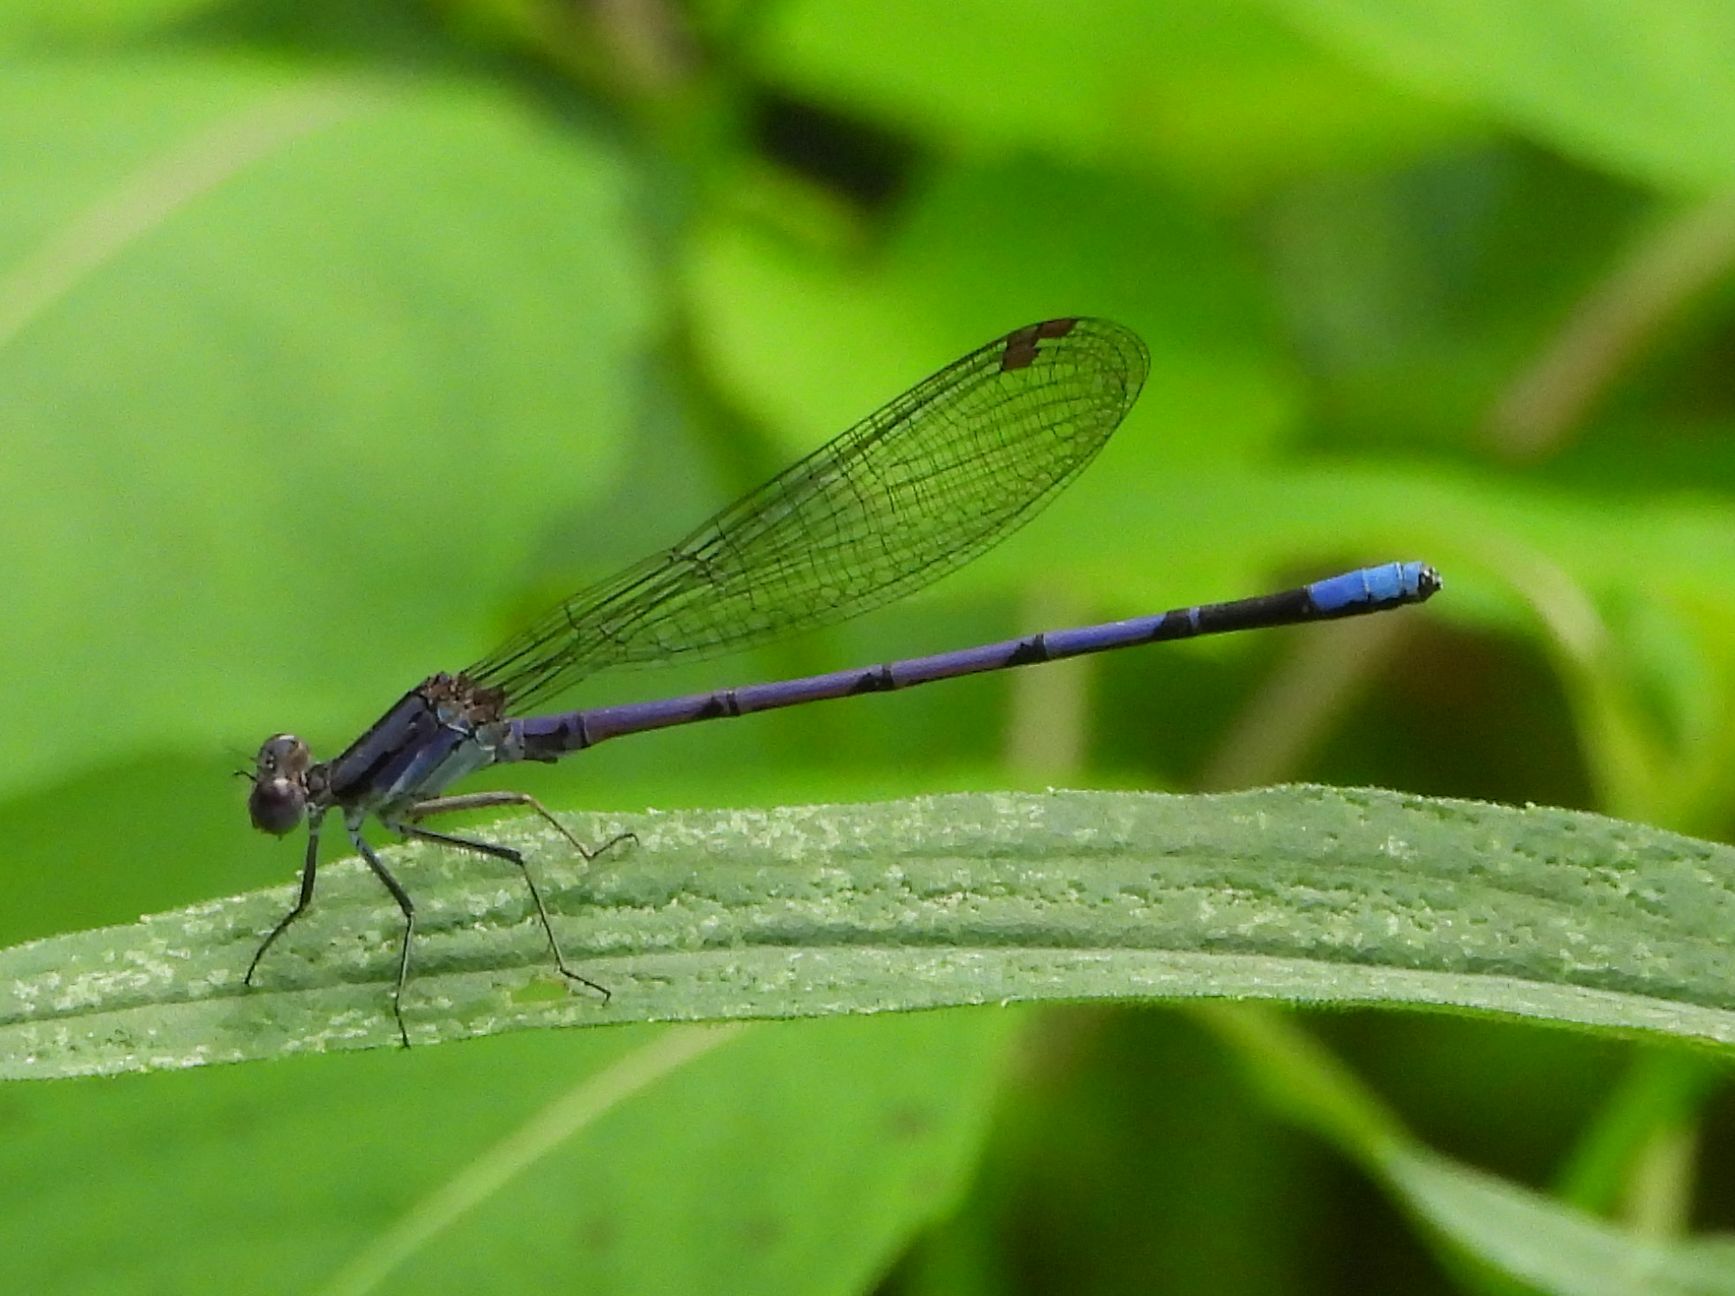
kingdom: Animalia
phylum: Arthropoda
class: Insecta
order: Odonata
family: Coenagrionidae
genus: Argia
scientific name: Argia fumipennis
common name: Variable dancer
